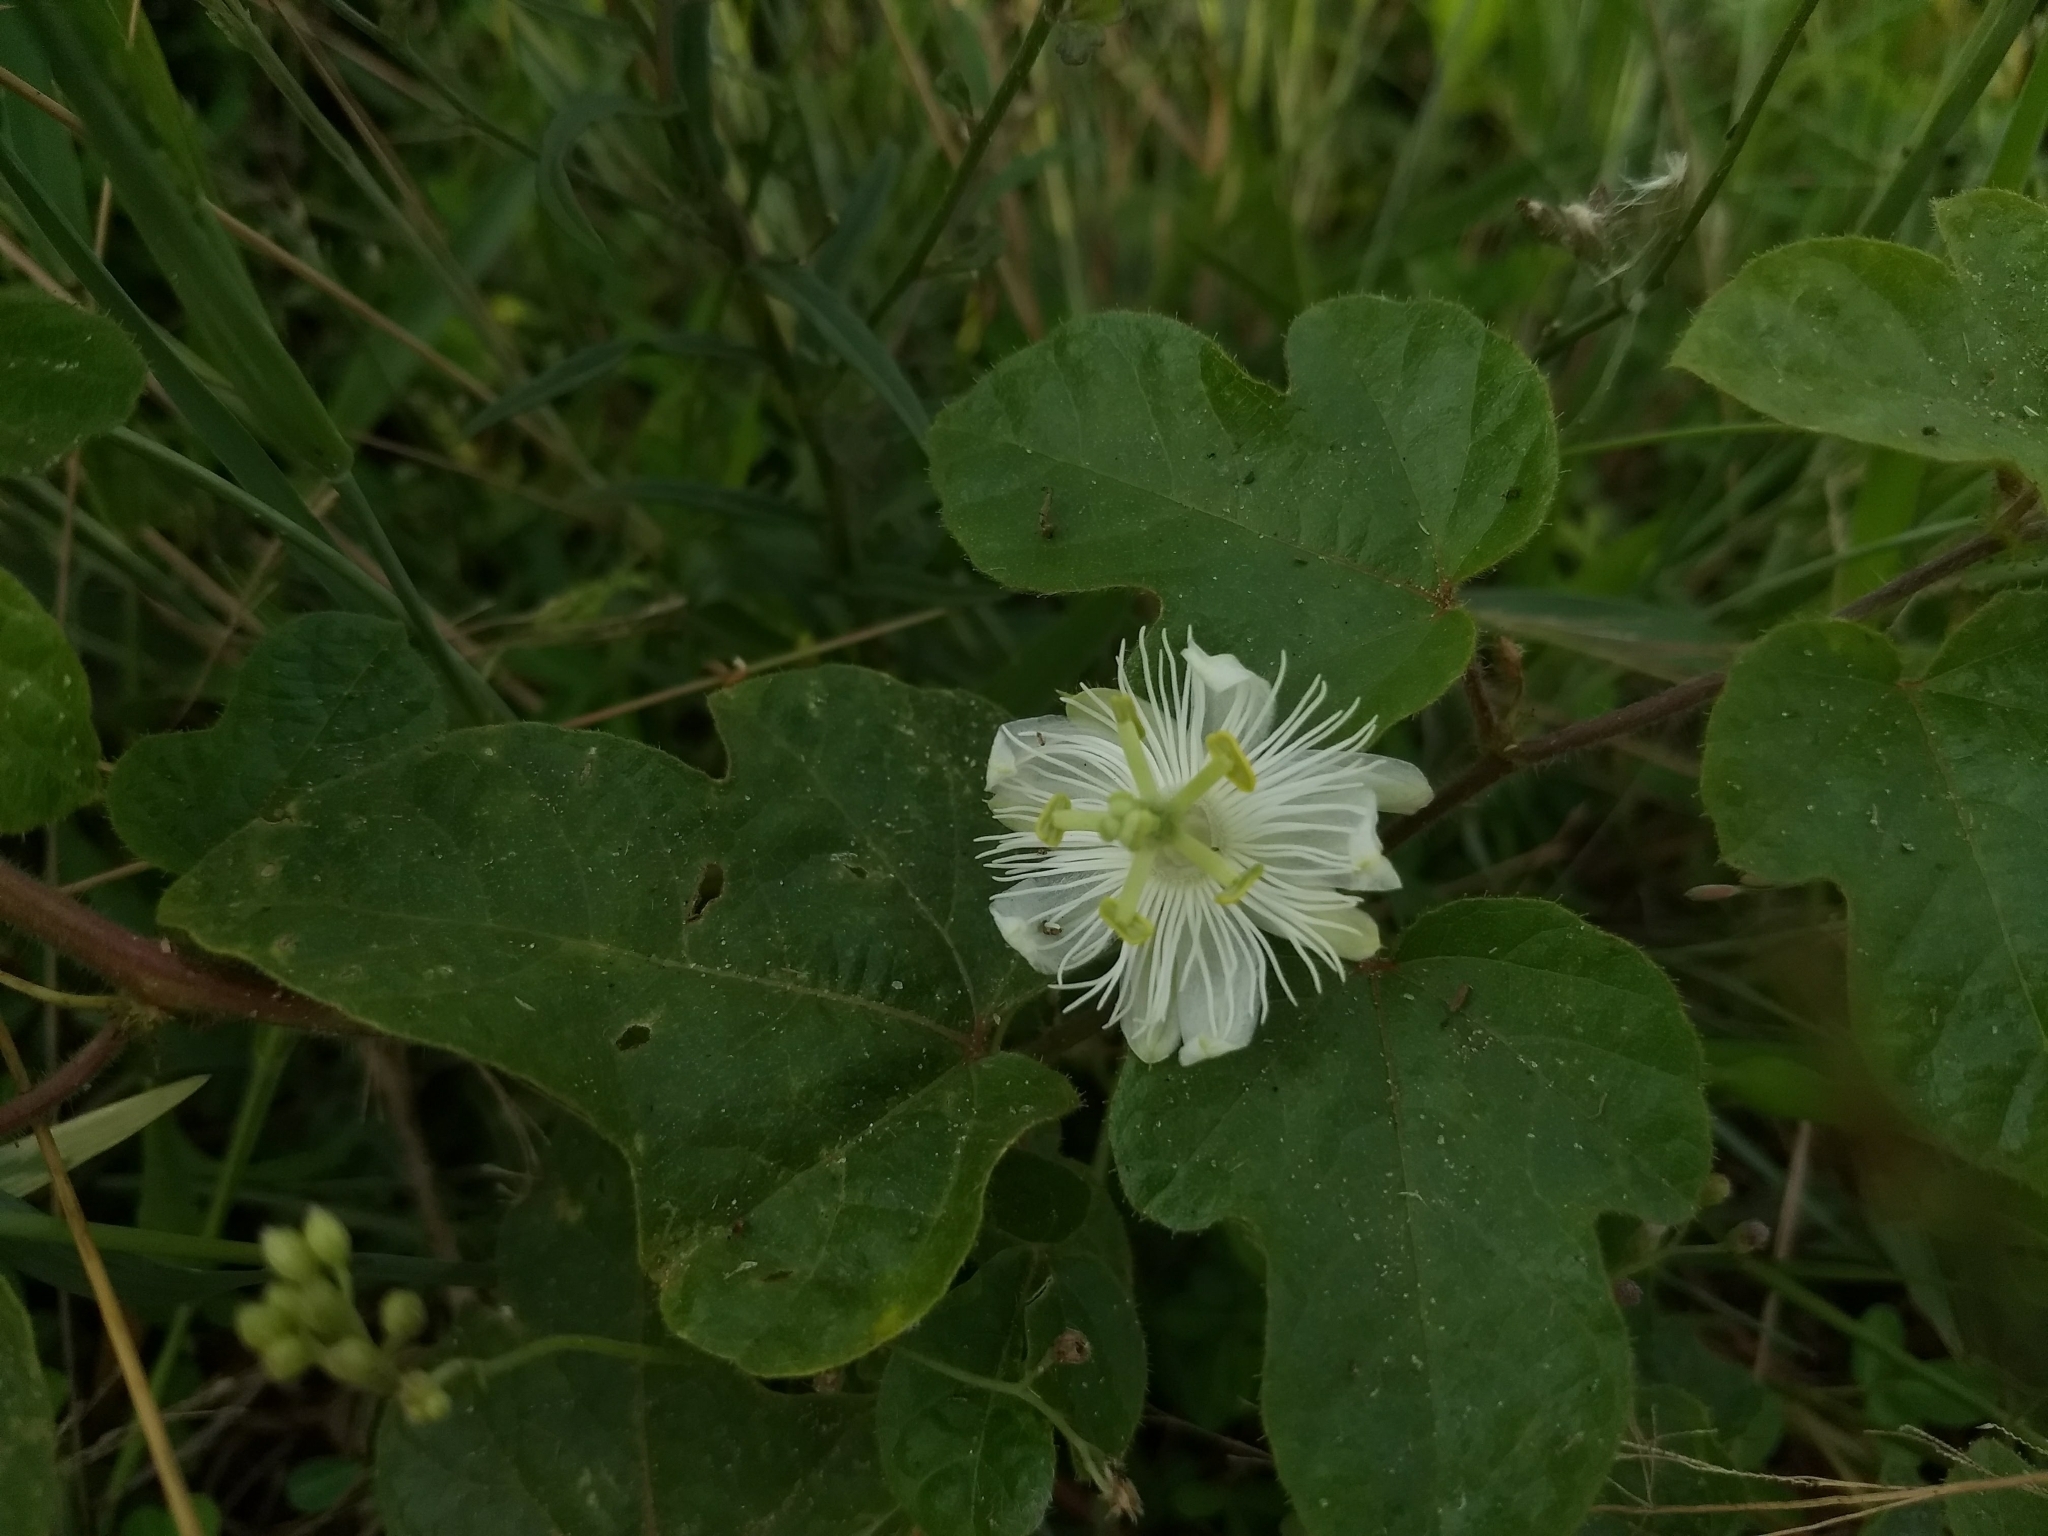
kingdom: Plantae
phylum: Tracheophyta
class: Magnoliopsida
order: Malpighiales
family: Passifloraceae
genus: Passiflora
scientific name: Passiflora foetida
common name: Fetid passionflower
